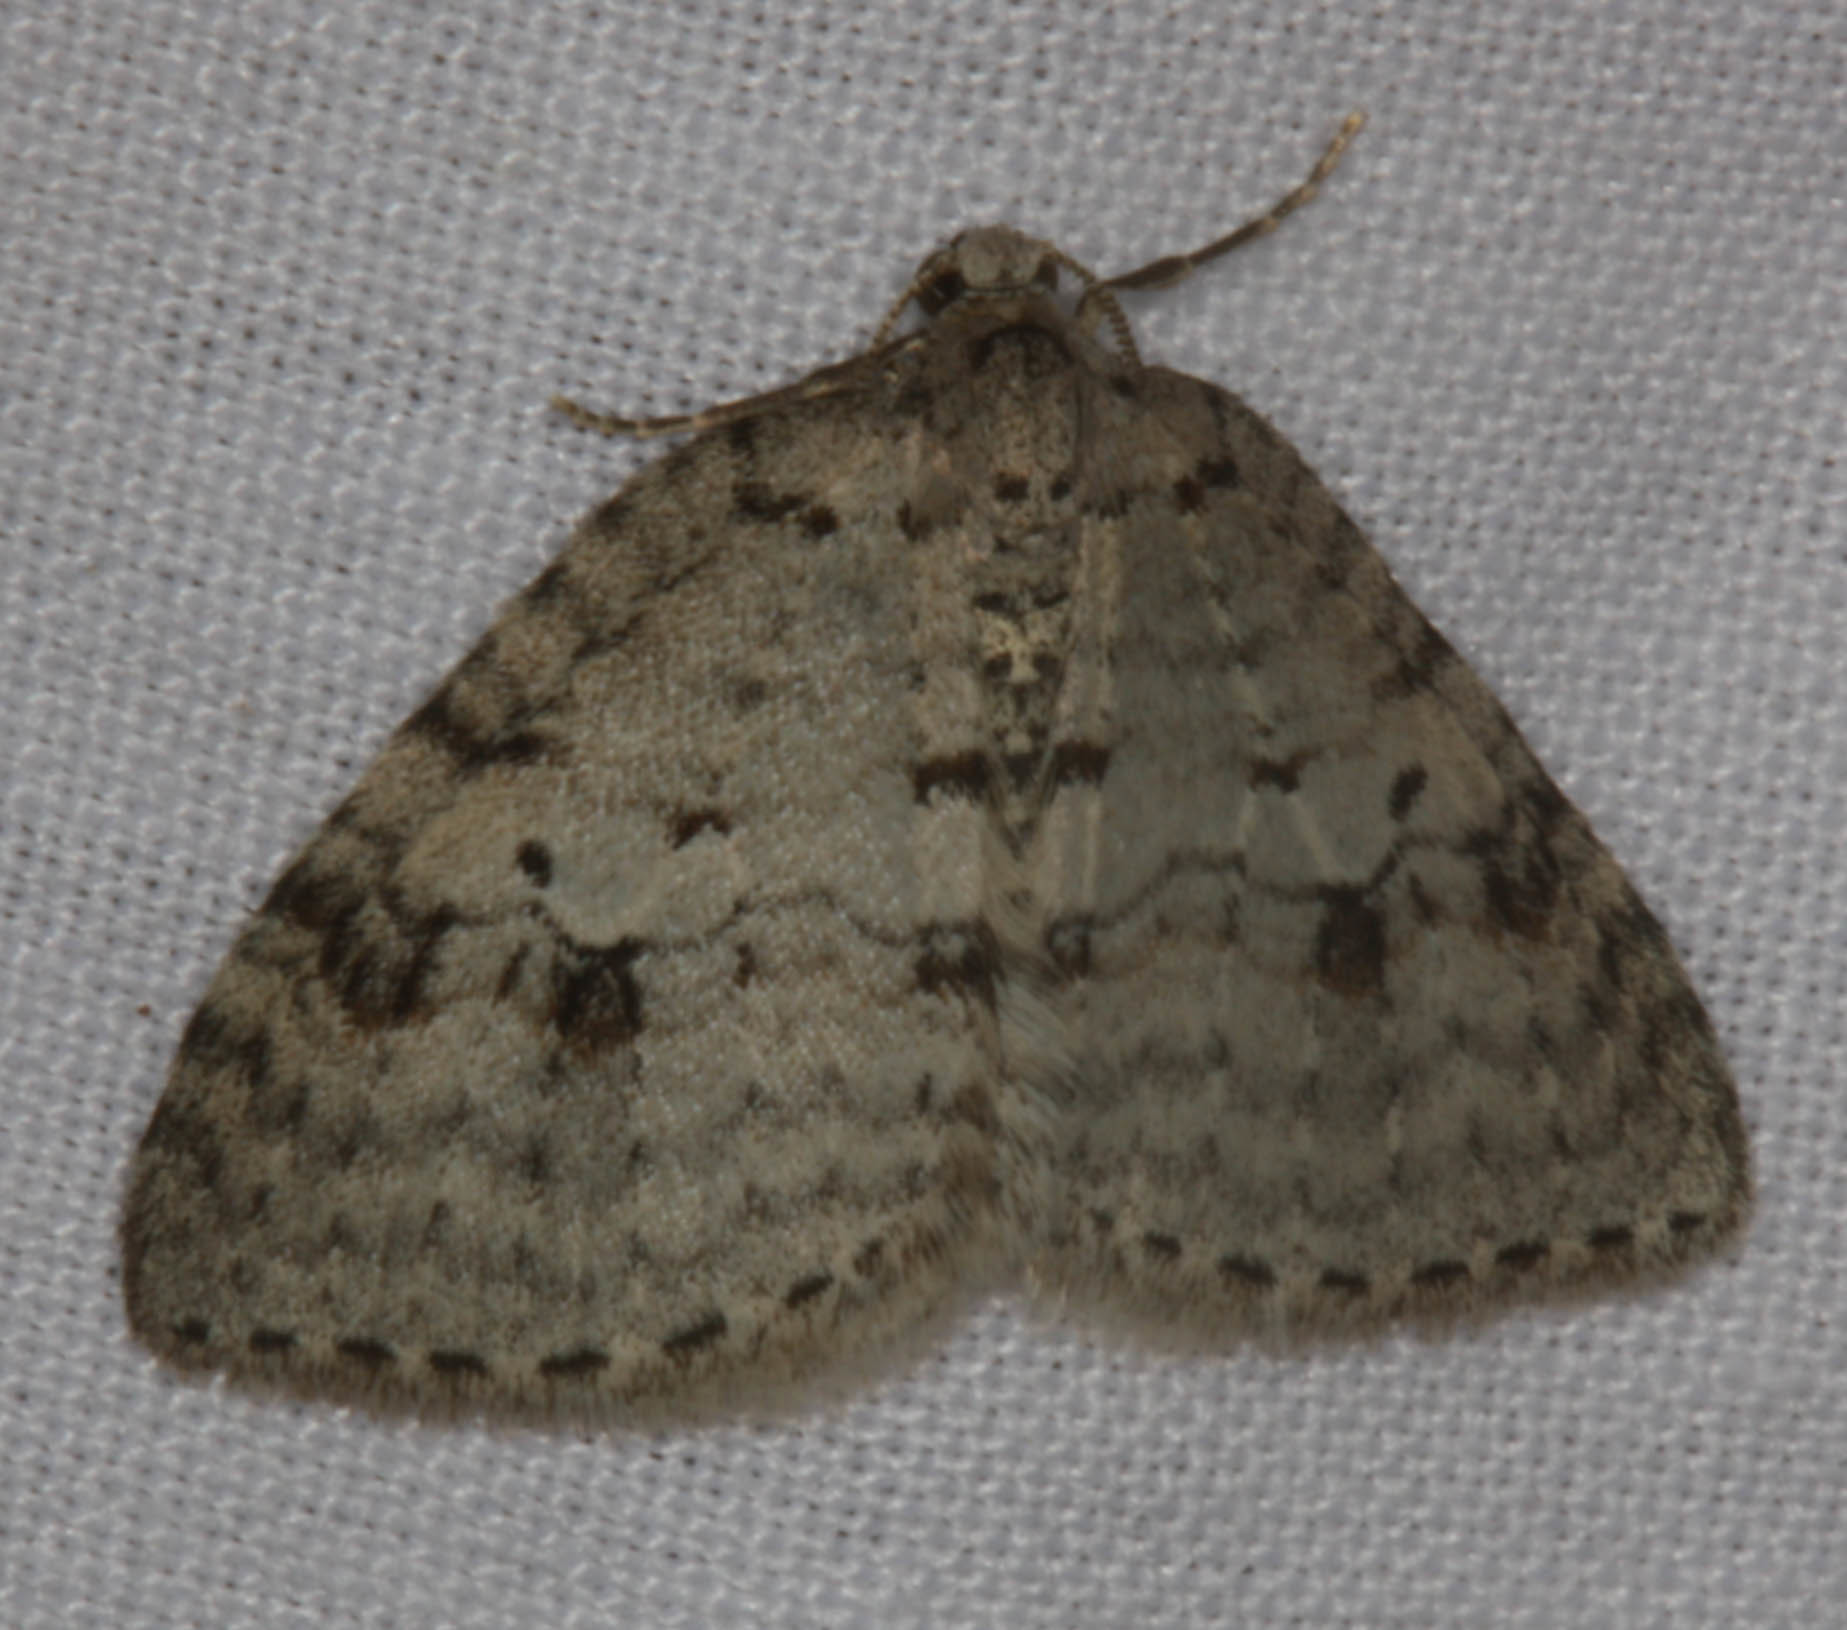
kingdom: Animalia
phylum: Arthropoda
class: Insecta
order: Lepidoptera
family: Geometridae
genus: Venusia
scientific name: Venusia
